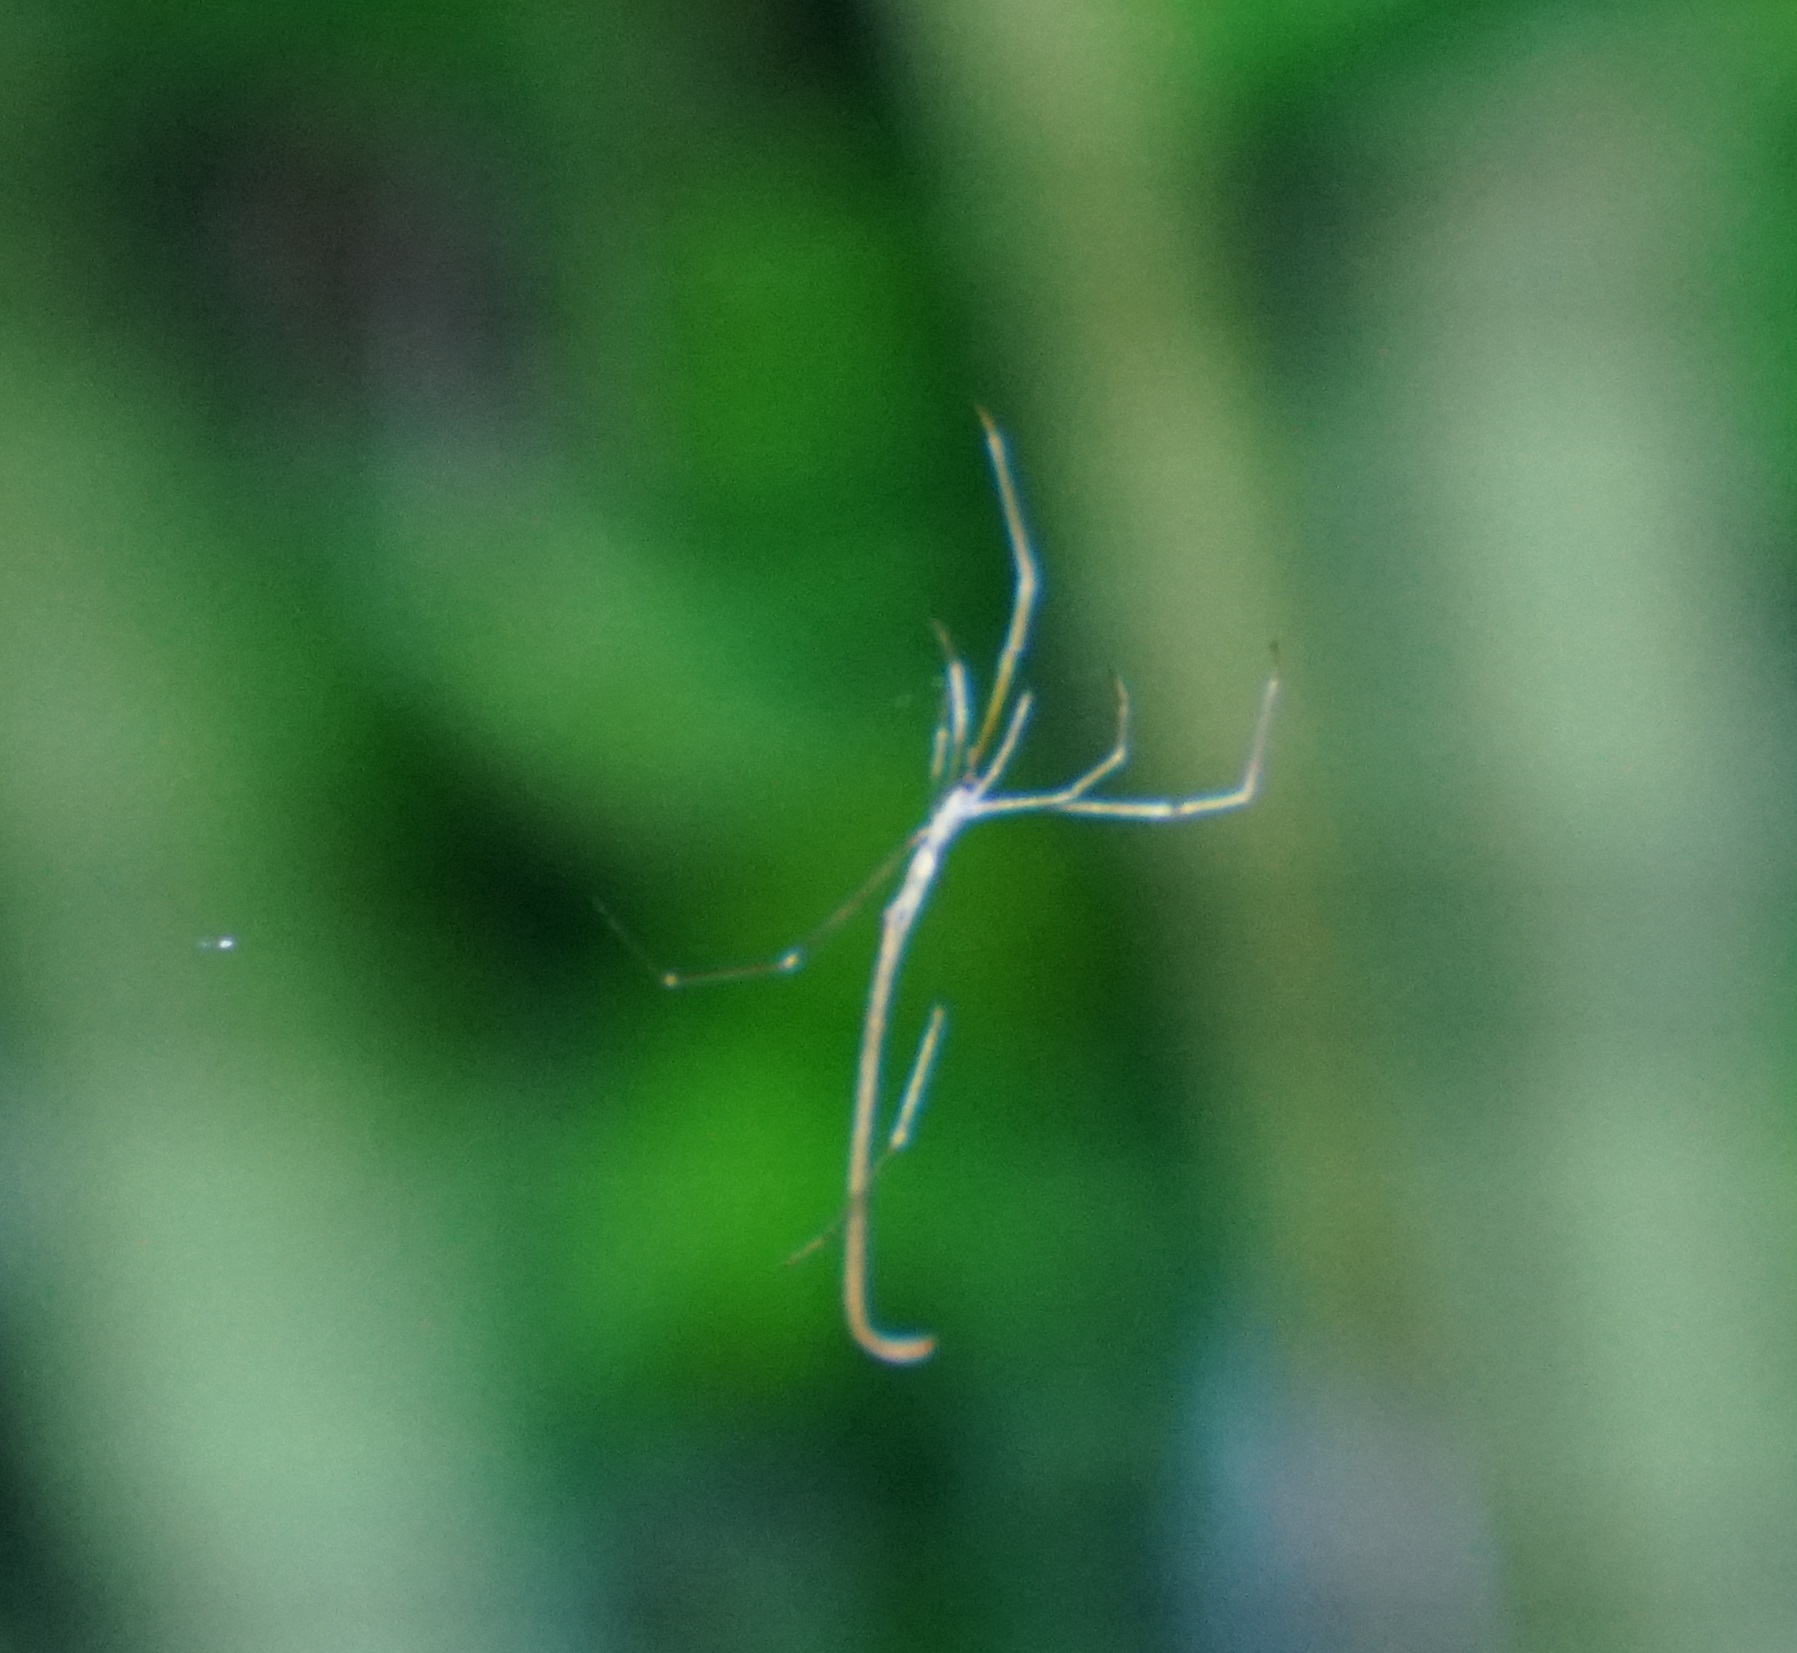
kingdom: Animalia
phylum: Arthropoda
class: Arachnida
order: Araneae
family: Theridiidae
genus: Ariamnes
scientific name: Ariamnes colubrinus
